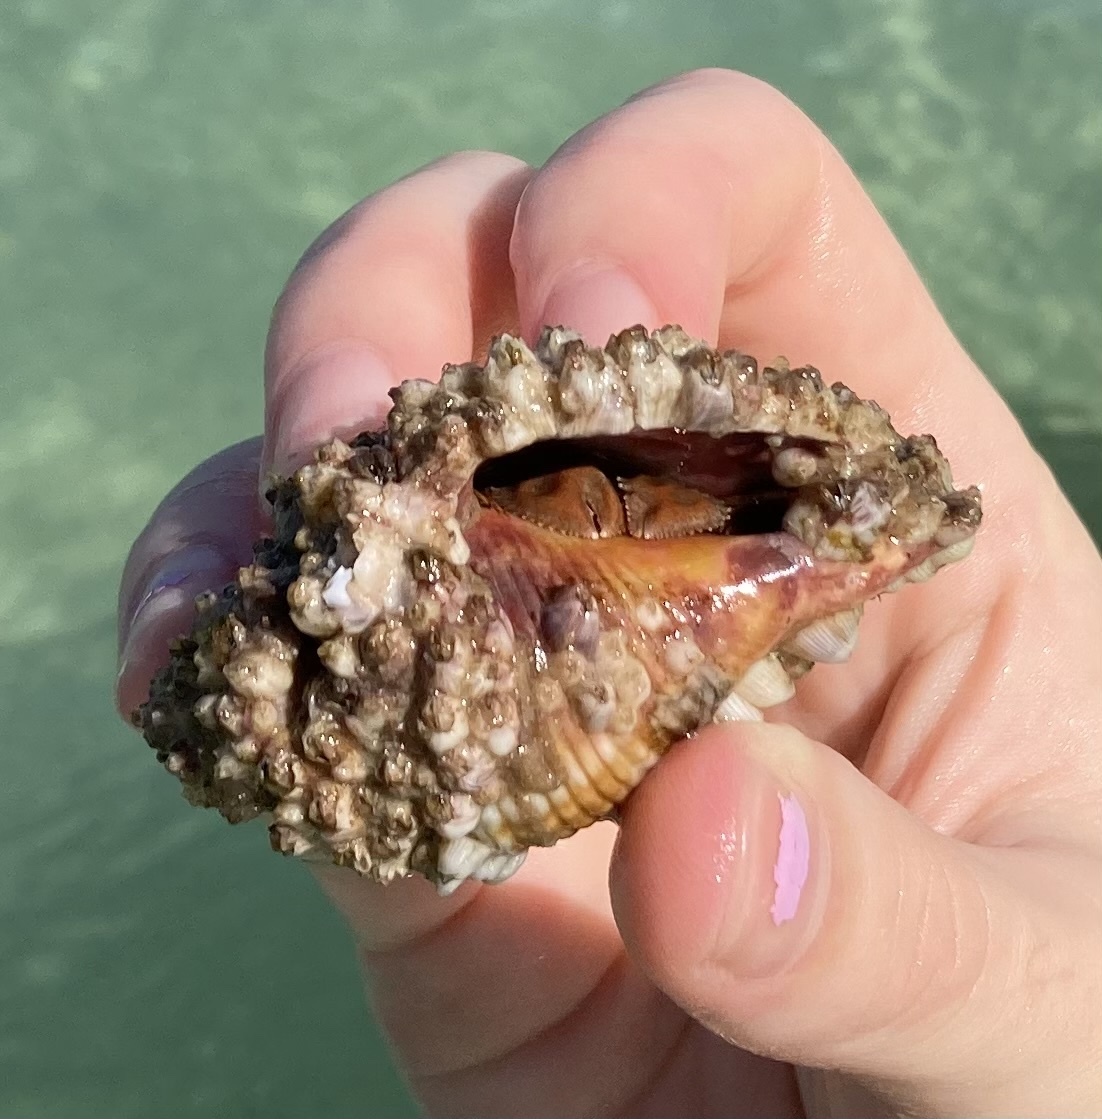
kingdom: Animalia
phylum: Arthropoda
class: Malacostraca
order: Decapoda
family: Paguridae
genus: Pagurus
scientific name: Pagurus impressus
